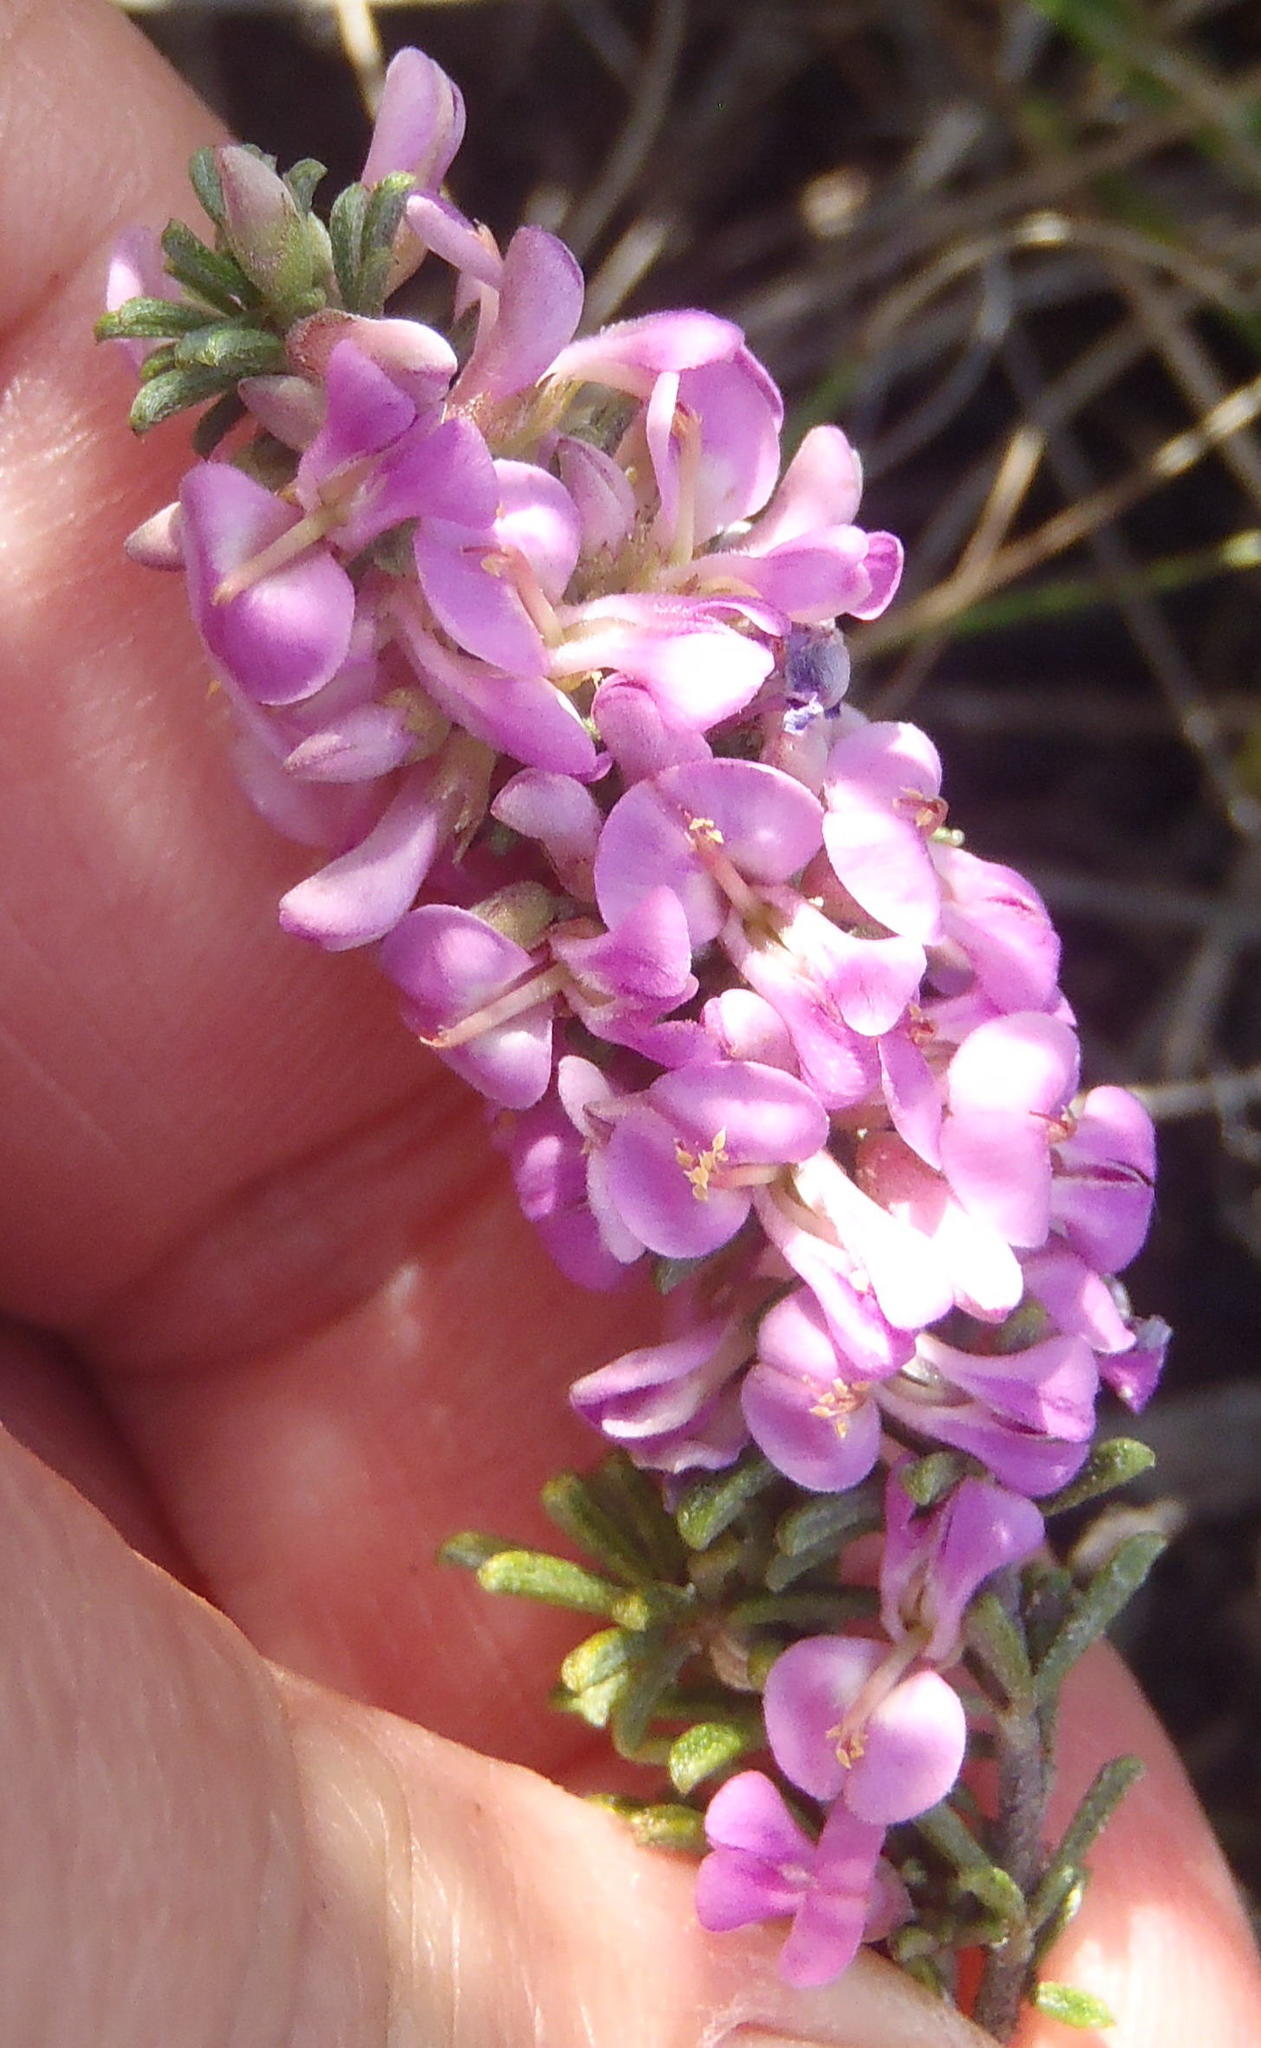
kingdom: Plantae
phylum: Tracheophyta
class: Magnoliopsida
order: Fabales
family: Fabaceae
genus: Indigofera
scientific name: Indigofera pappei
